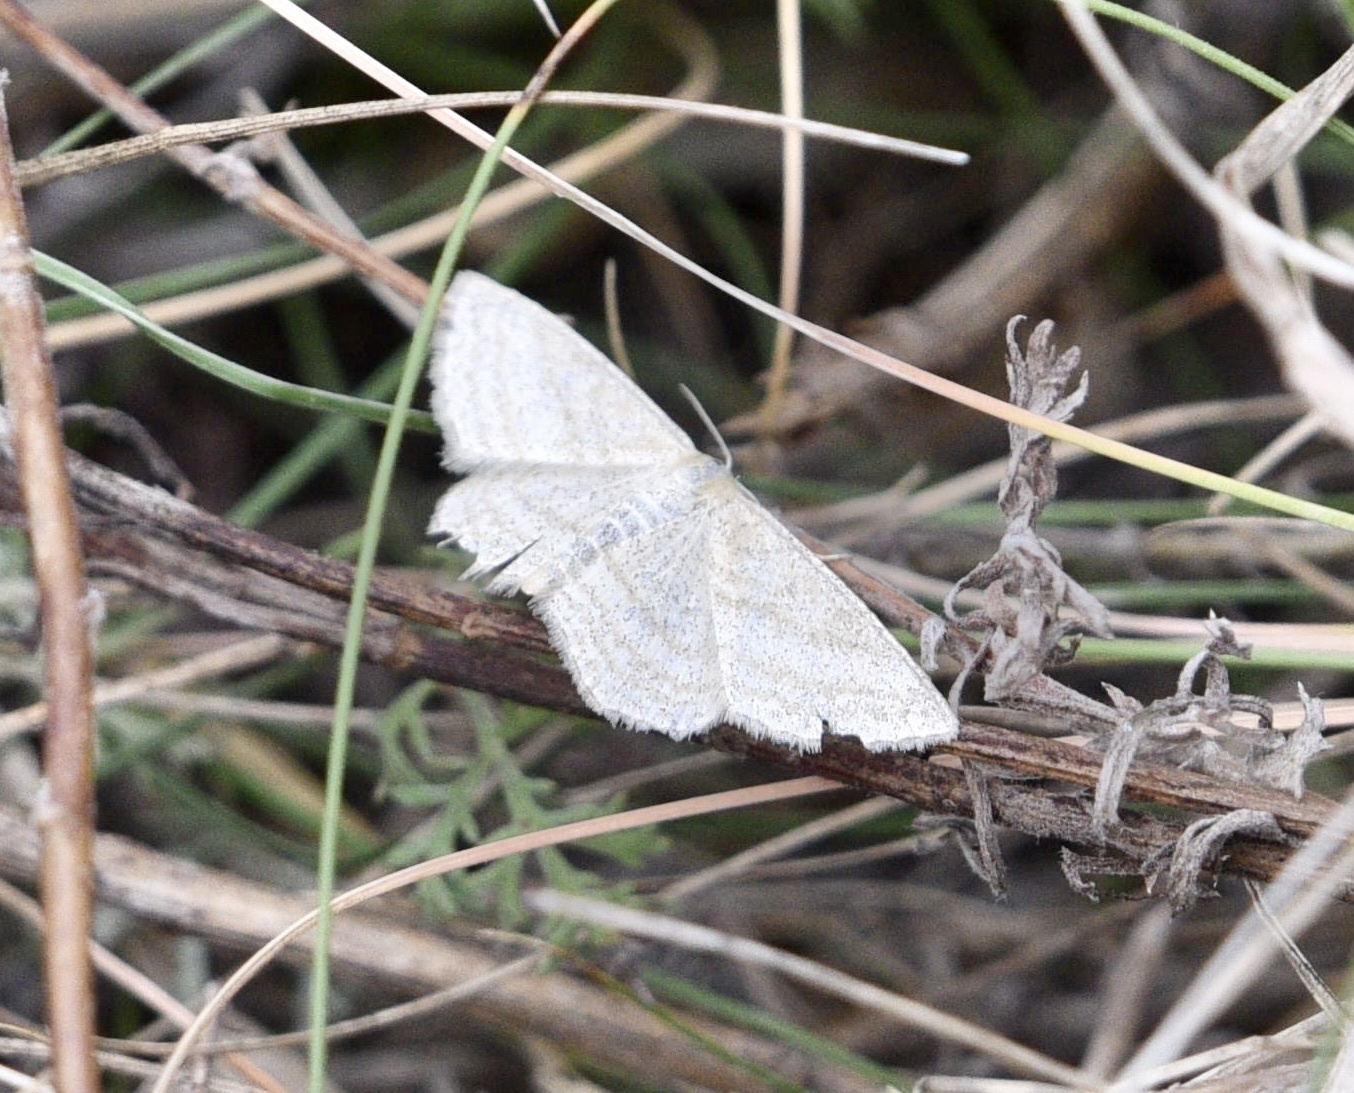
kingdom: Animalia
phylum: Arthropoda
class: Insecta
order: Lepidoptera
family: Geometridae
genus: Scopula
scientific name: Scopula virgulata
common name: Streaked wave
